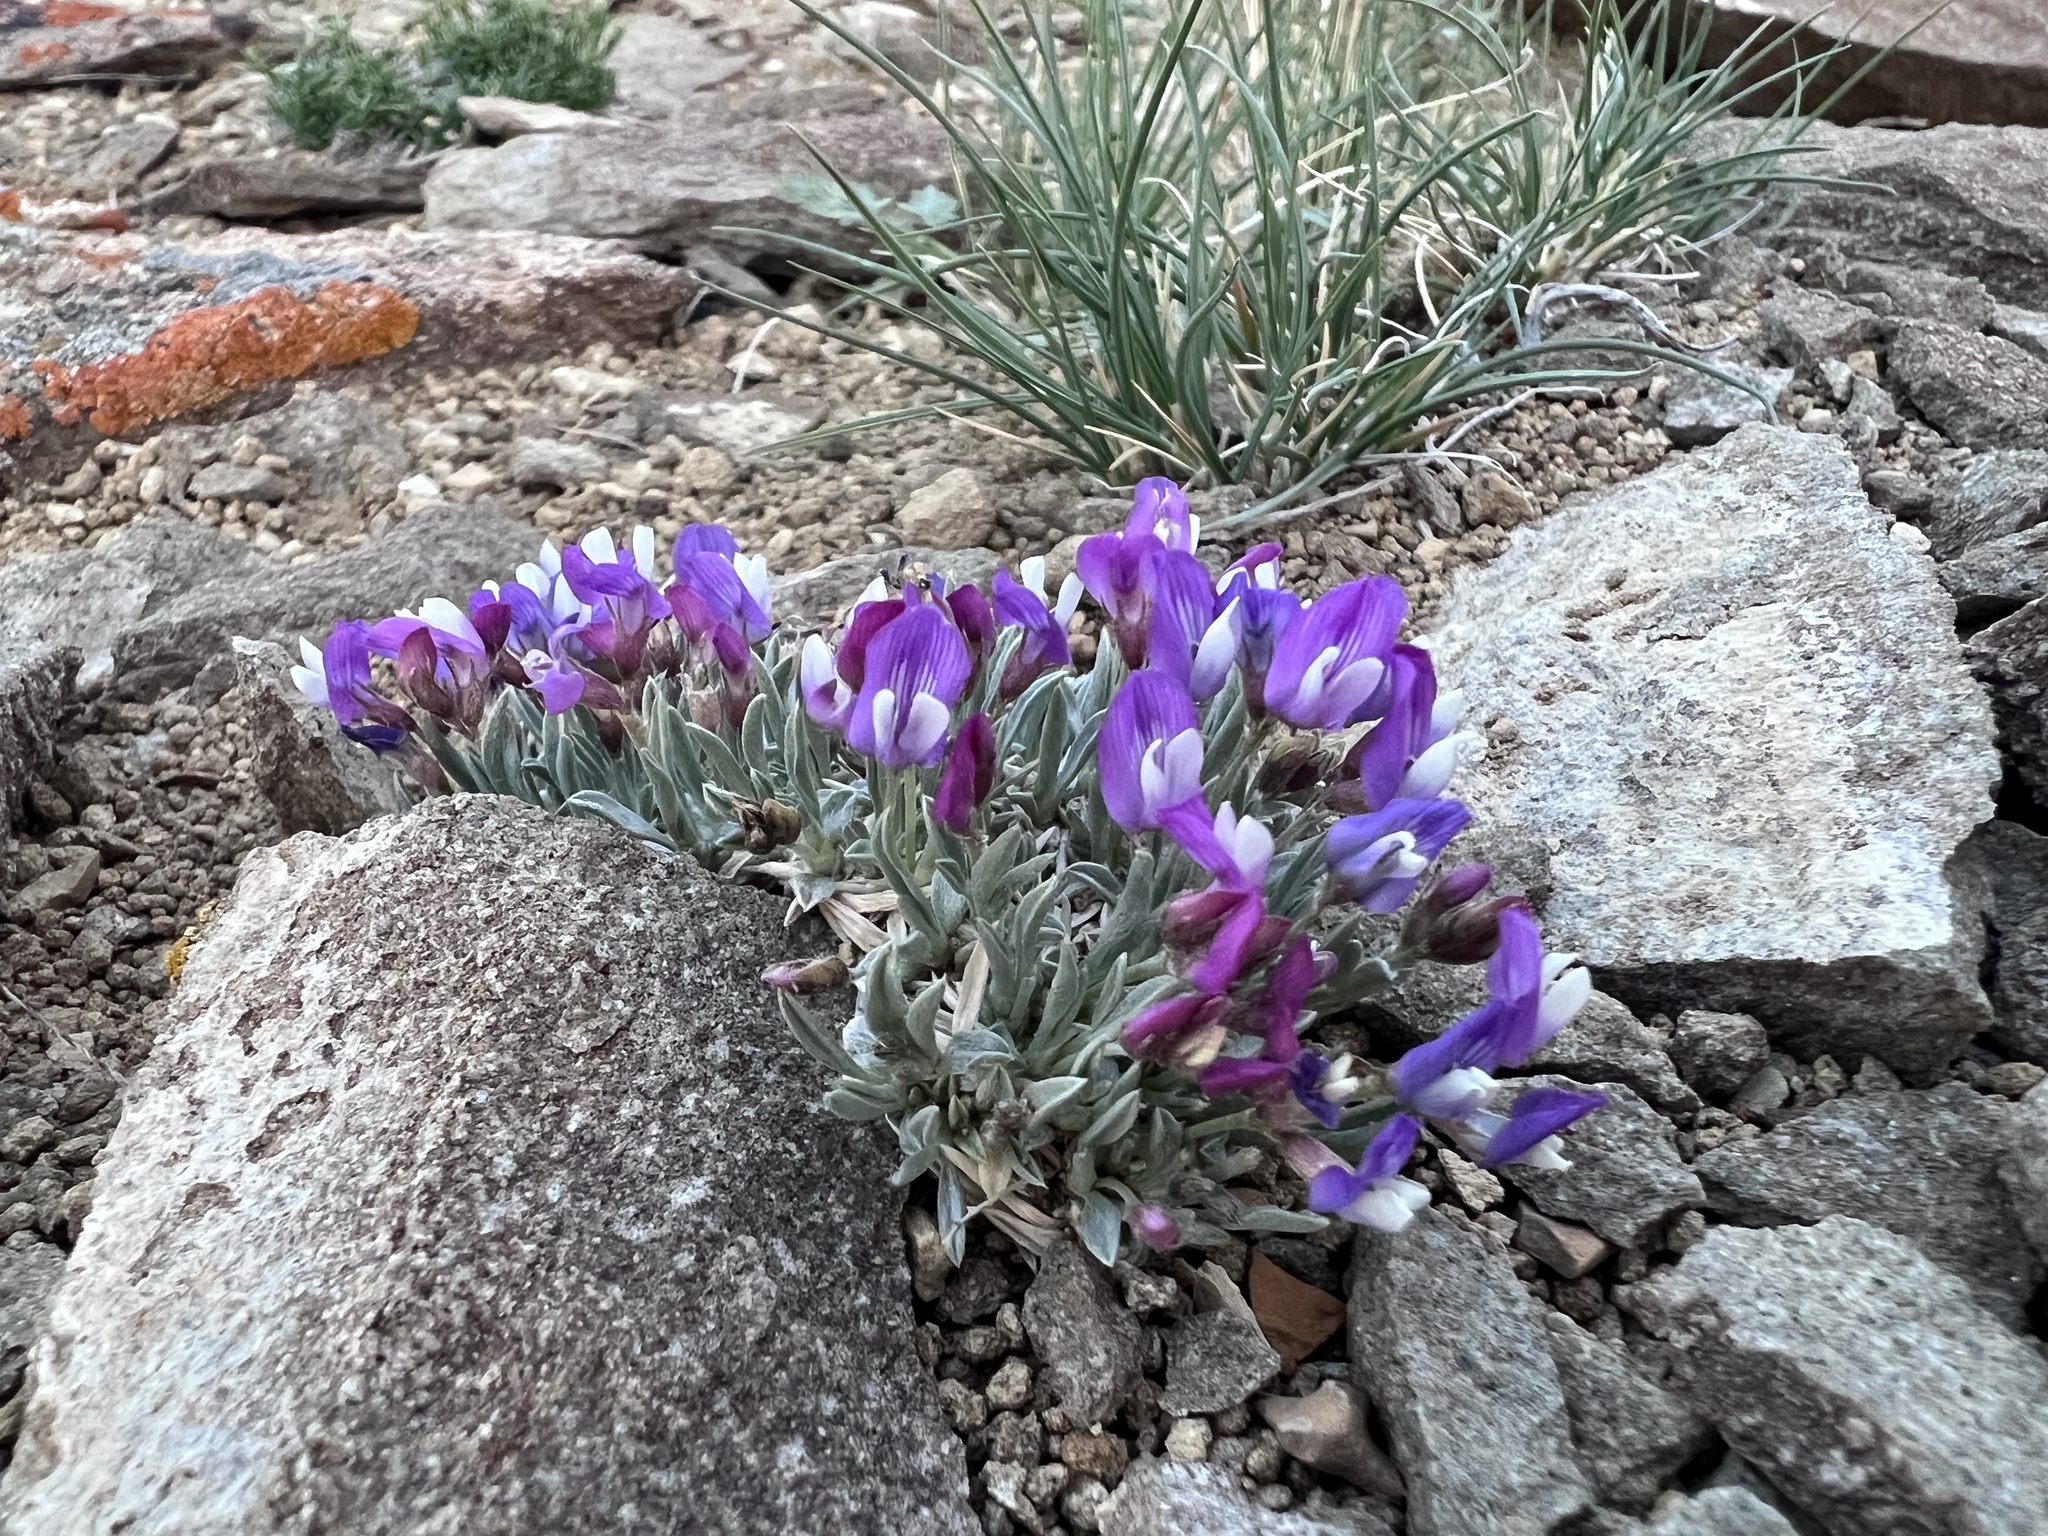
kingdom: Plantae
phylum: Tracheophyta
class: Magnoliopsida
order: Fabales
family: Fabaceae
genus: Astragalus
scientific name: Astragalus spatulatus
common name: Draba milk-vetch
